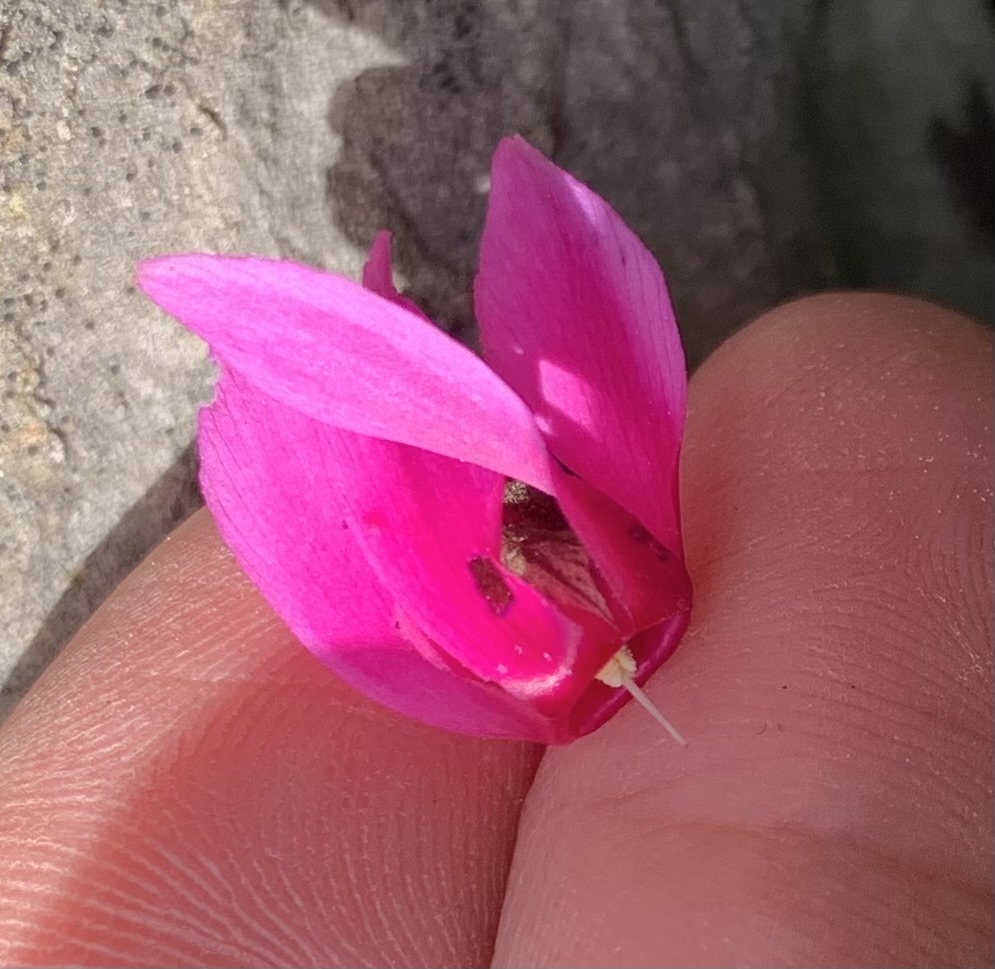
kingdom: Plantae
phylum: Tracheophyta
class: Magnoliopsida
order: Ericales
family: Primulaceae
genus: Cyclamen
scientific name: Cyclamen repandum
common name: Spring sowbread
